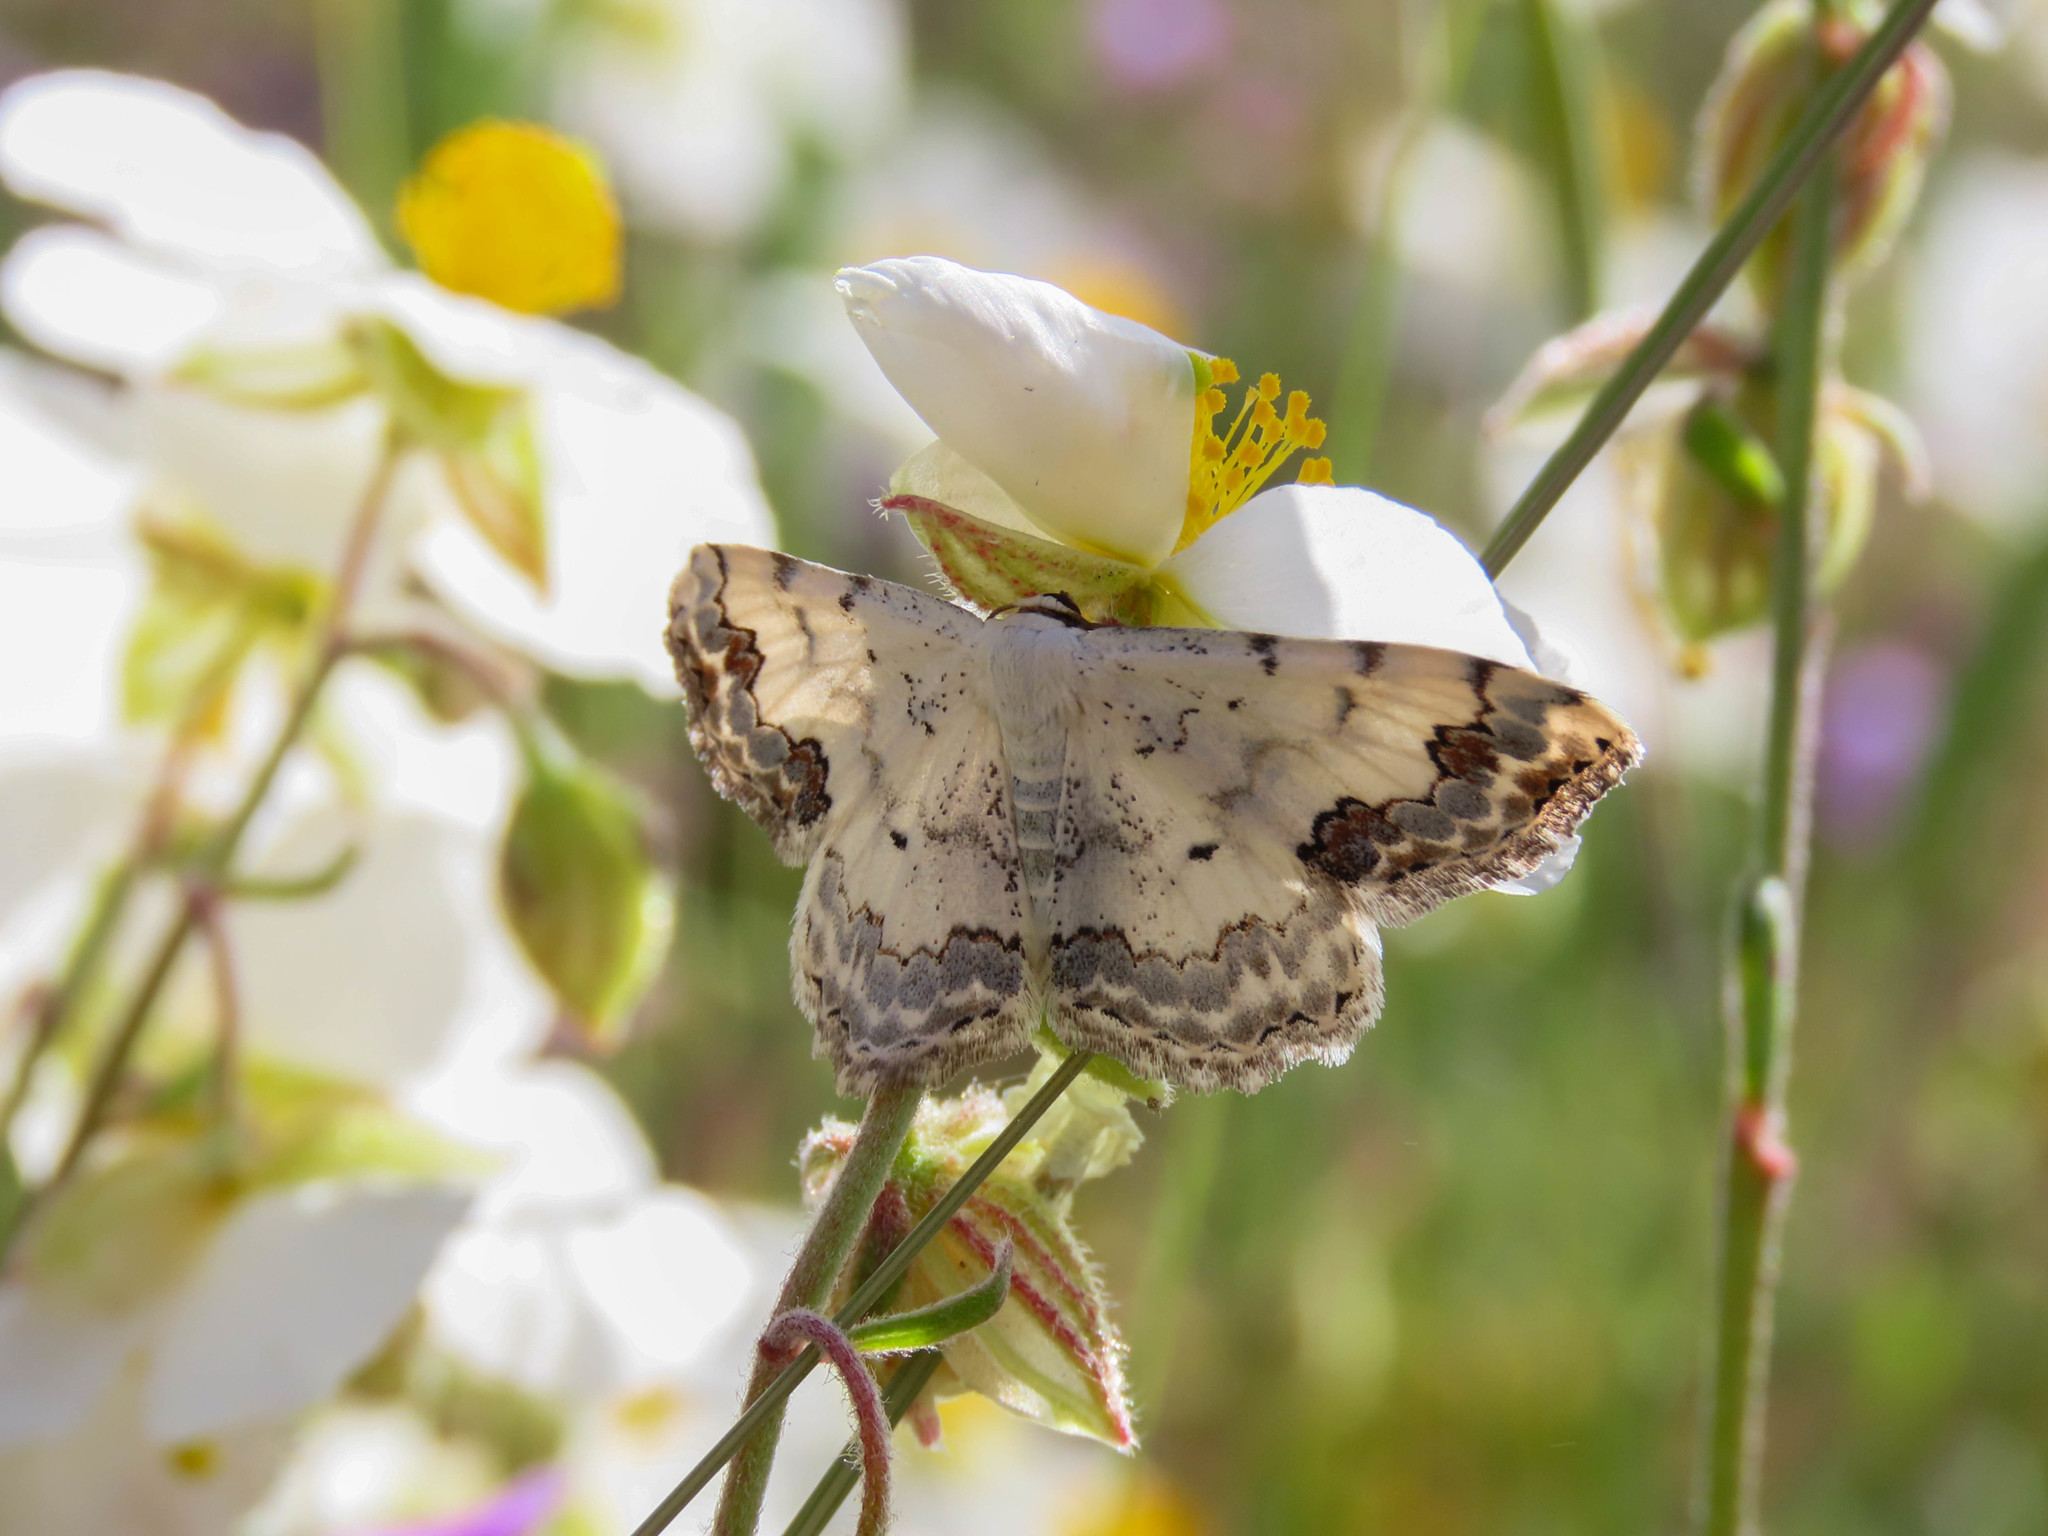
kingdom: Animalia
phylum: Arthropoda
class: Insecta
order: Lepidoptera
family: Geometridae
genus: Scopula
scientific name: Scopula decorata
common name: Middle lace border
